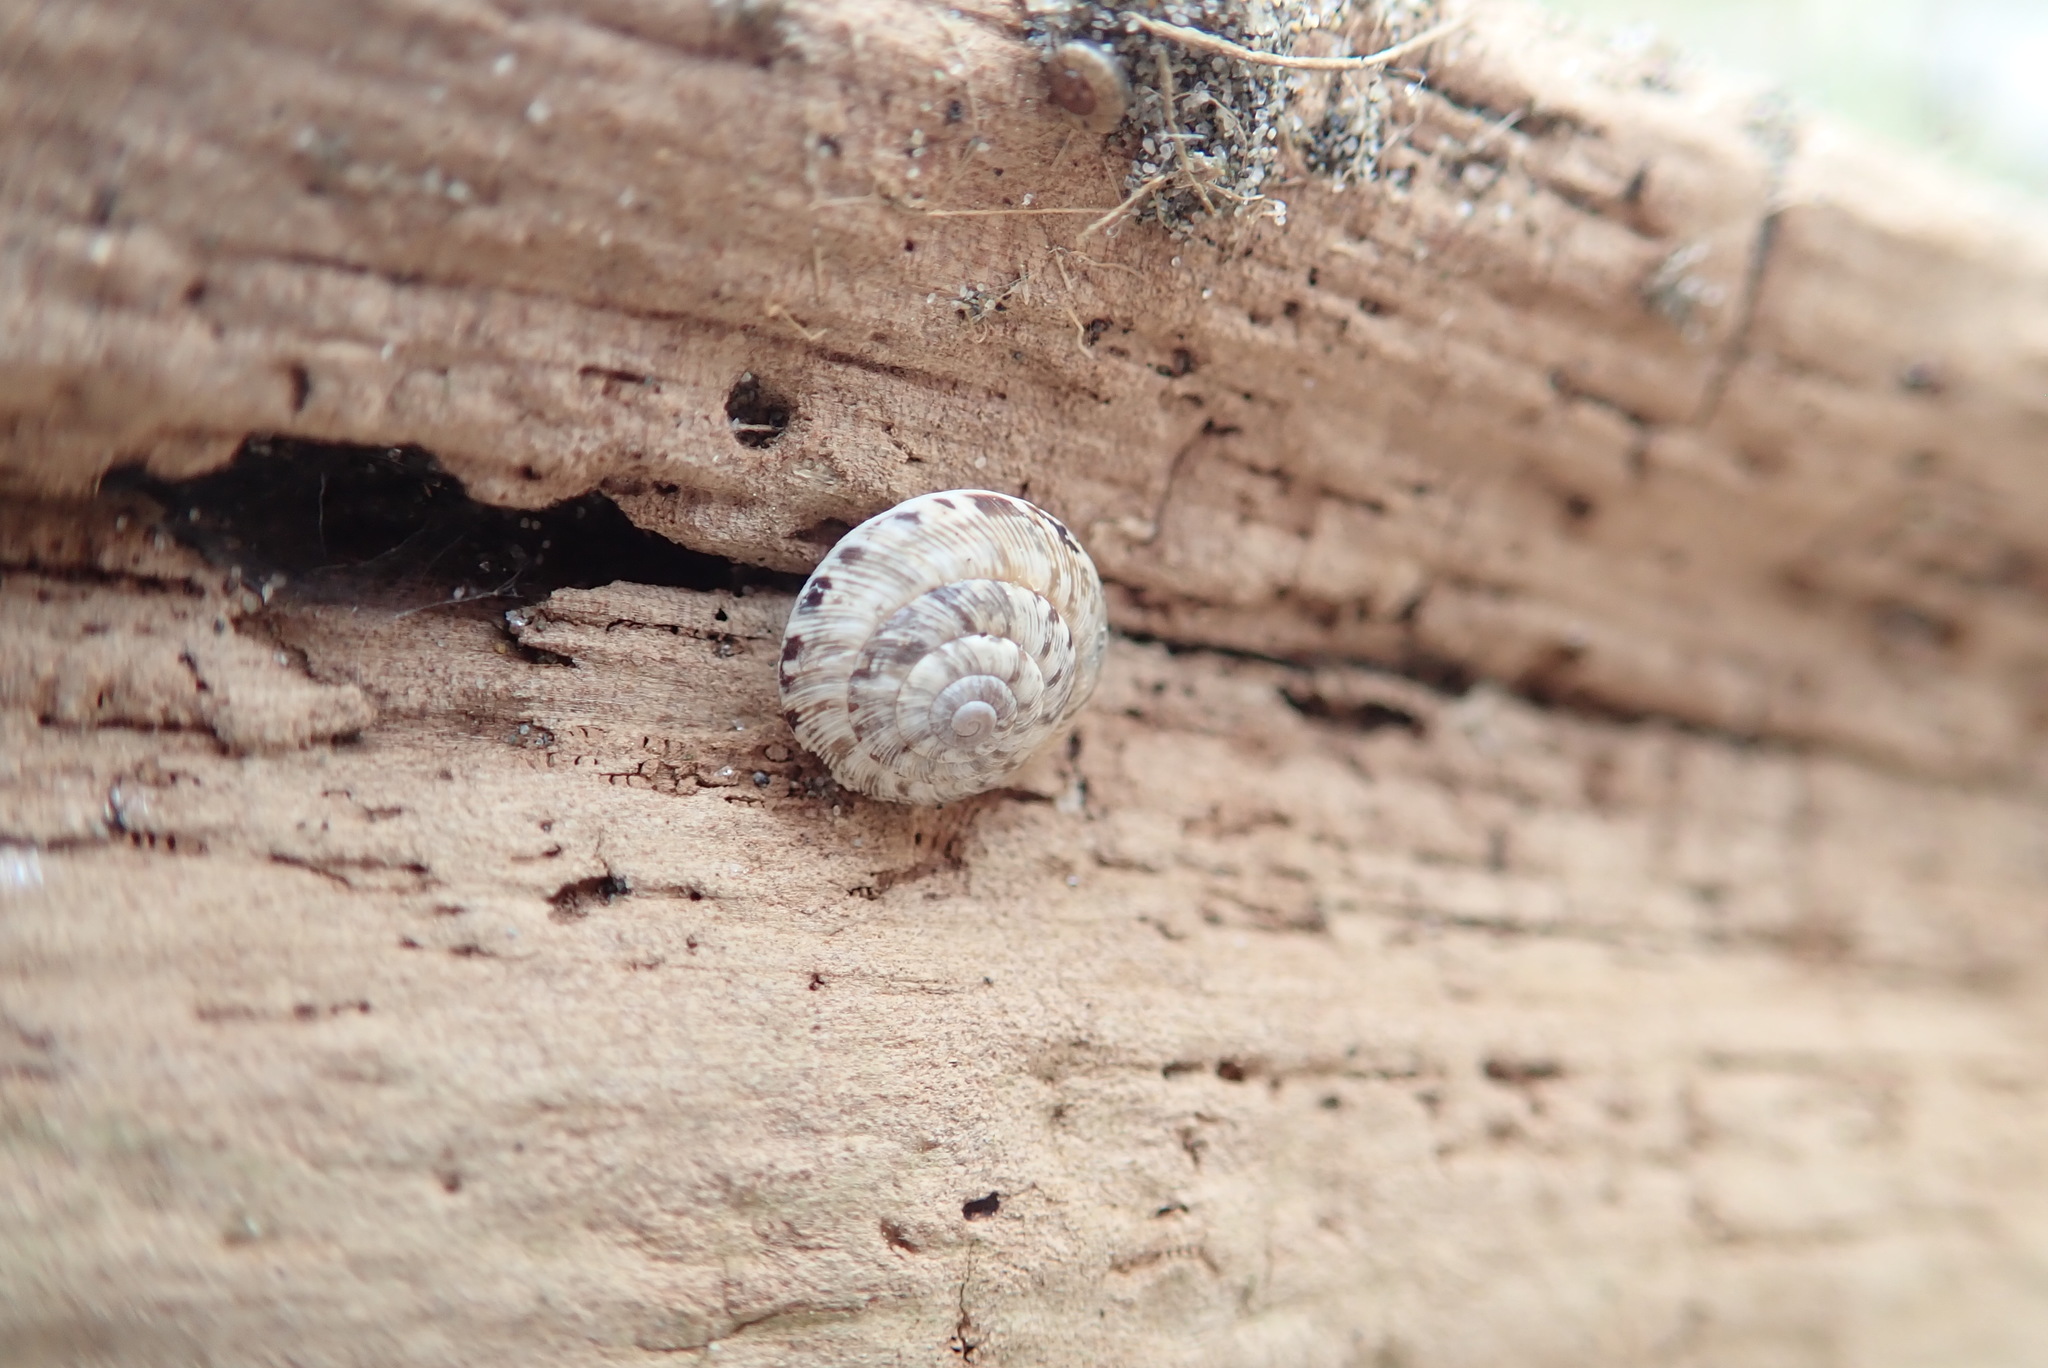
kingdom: Animalia
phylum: Mollusca
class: Gastropoda
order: Stylommatophora
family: Geomitridae
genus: Xeroplexa
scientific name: Xeroplexa intersecta
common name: Wrinkled snail
